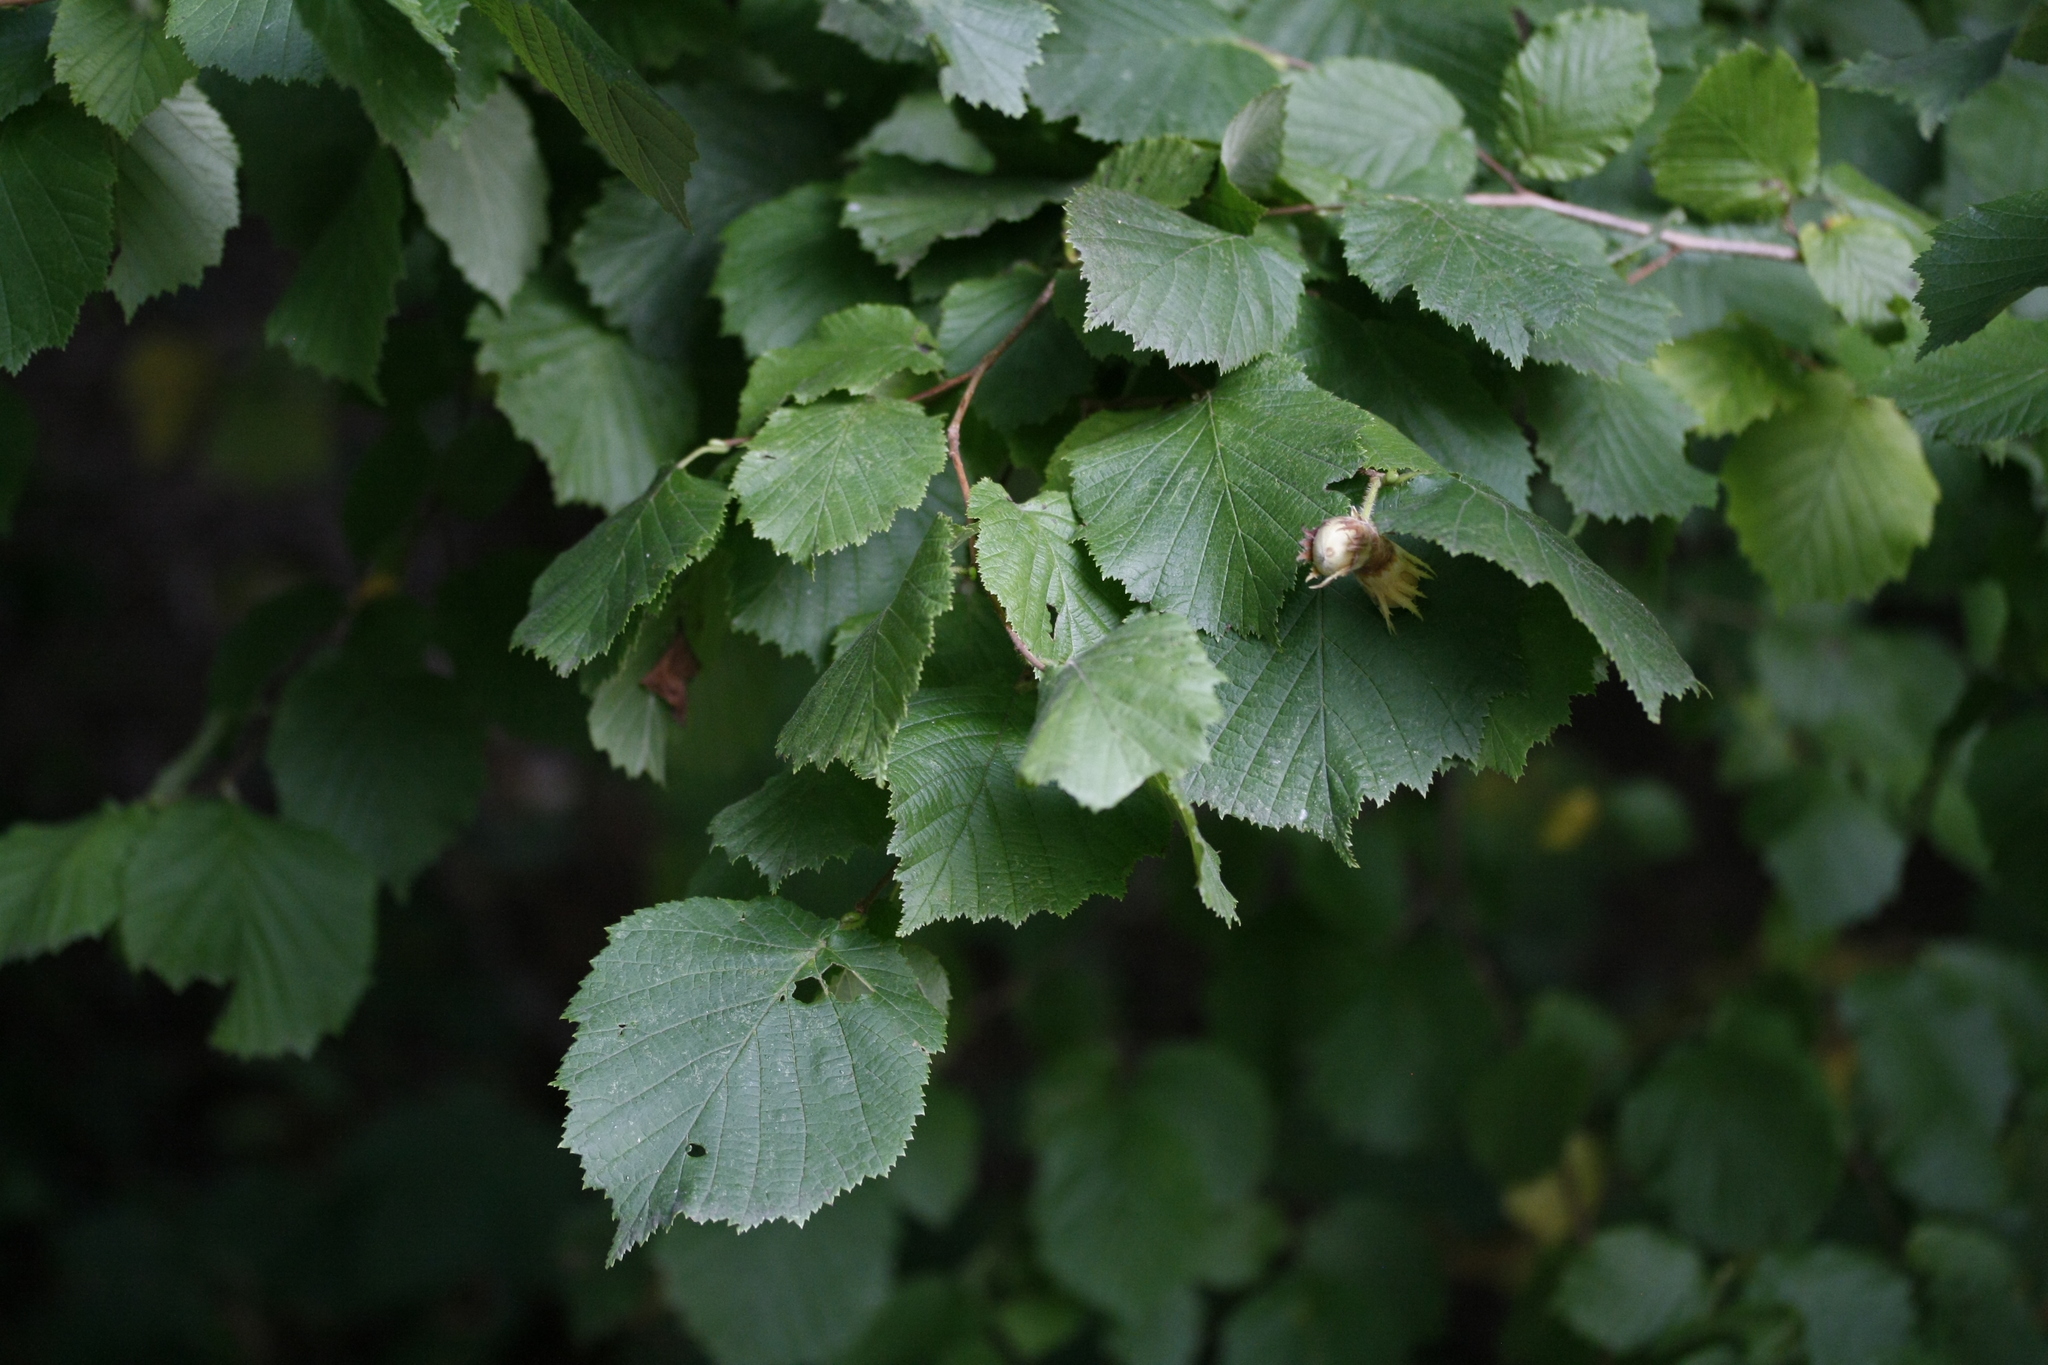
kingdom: Plantae
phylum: Tracheophyta
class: Magnoliopsida
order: Fagales
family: Betulaceae
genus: Corylus
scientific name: Corylus avellana
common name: European hazel
